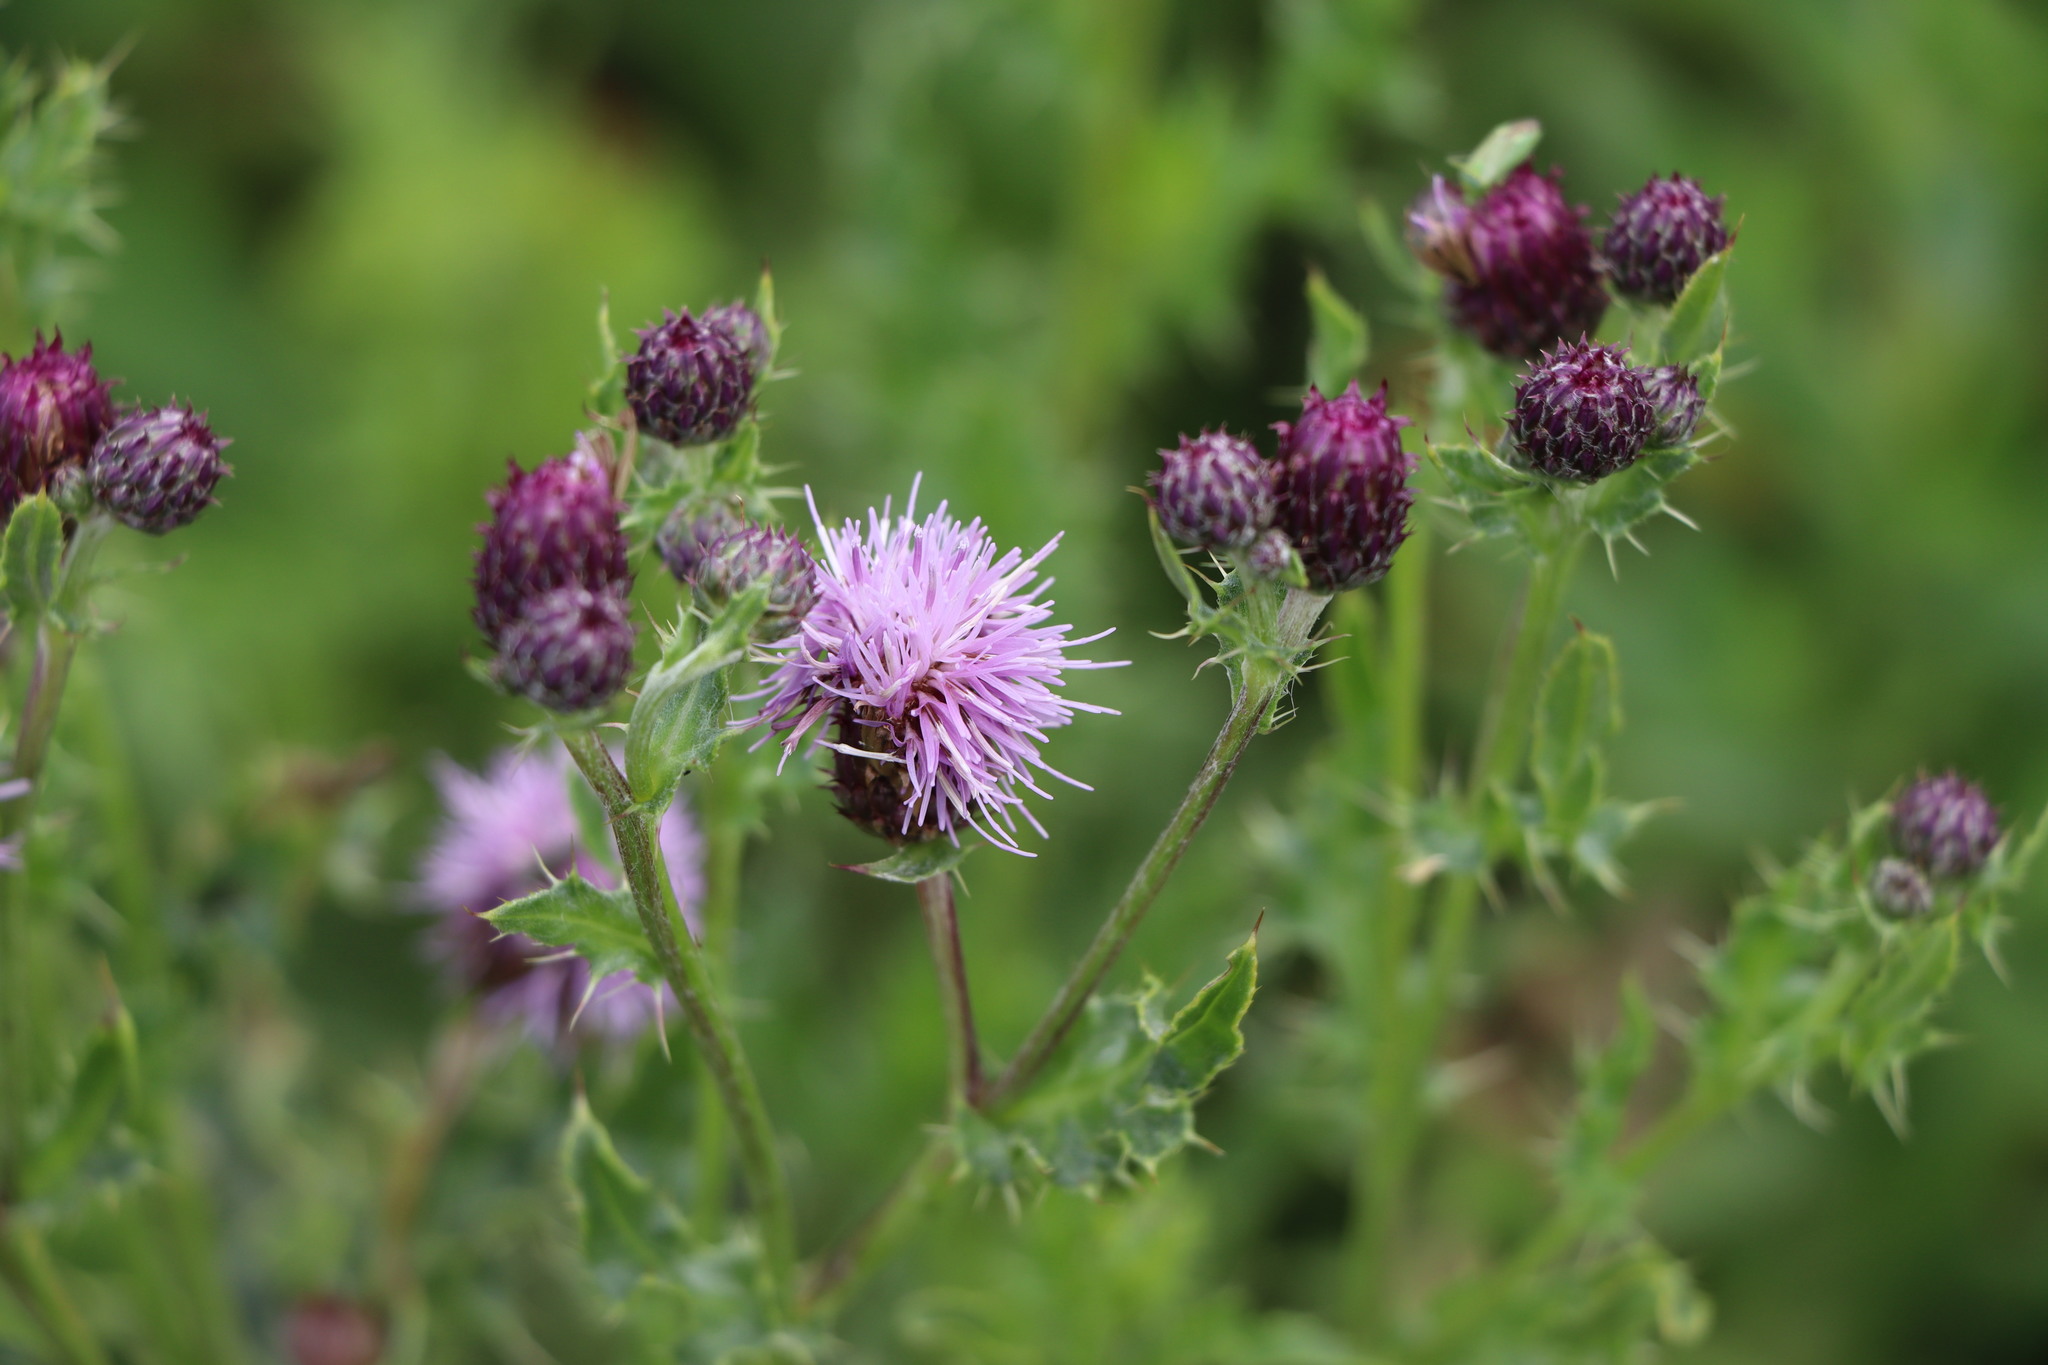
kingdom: Plantae
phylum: Tracheophyta
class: Magnoliopsida
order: Asterales
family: Asteraceae
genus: Cirsium
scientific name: Cirsium arvense
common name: Creeping thistle
